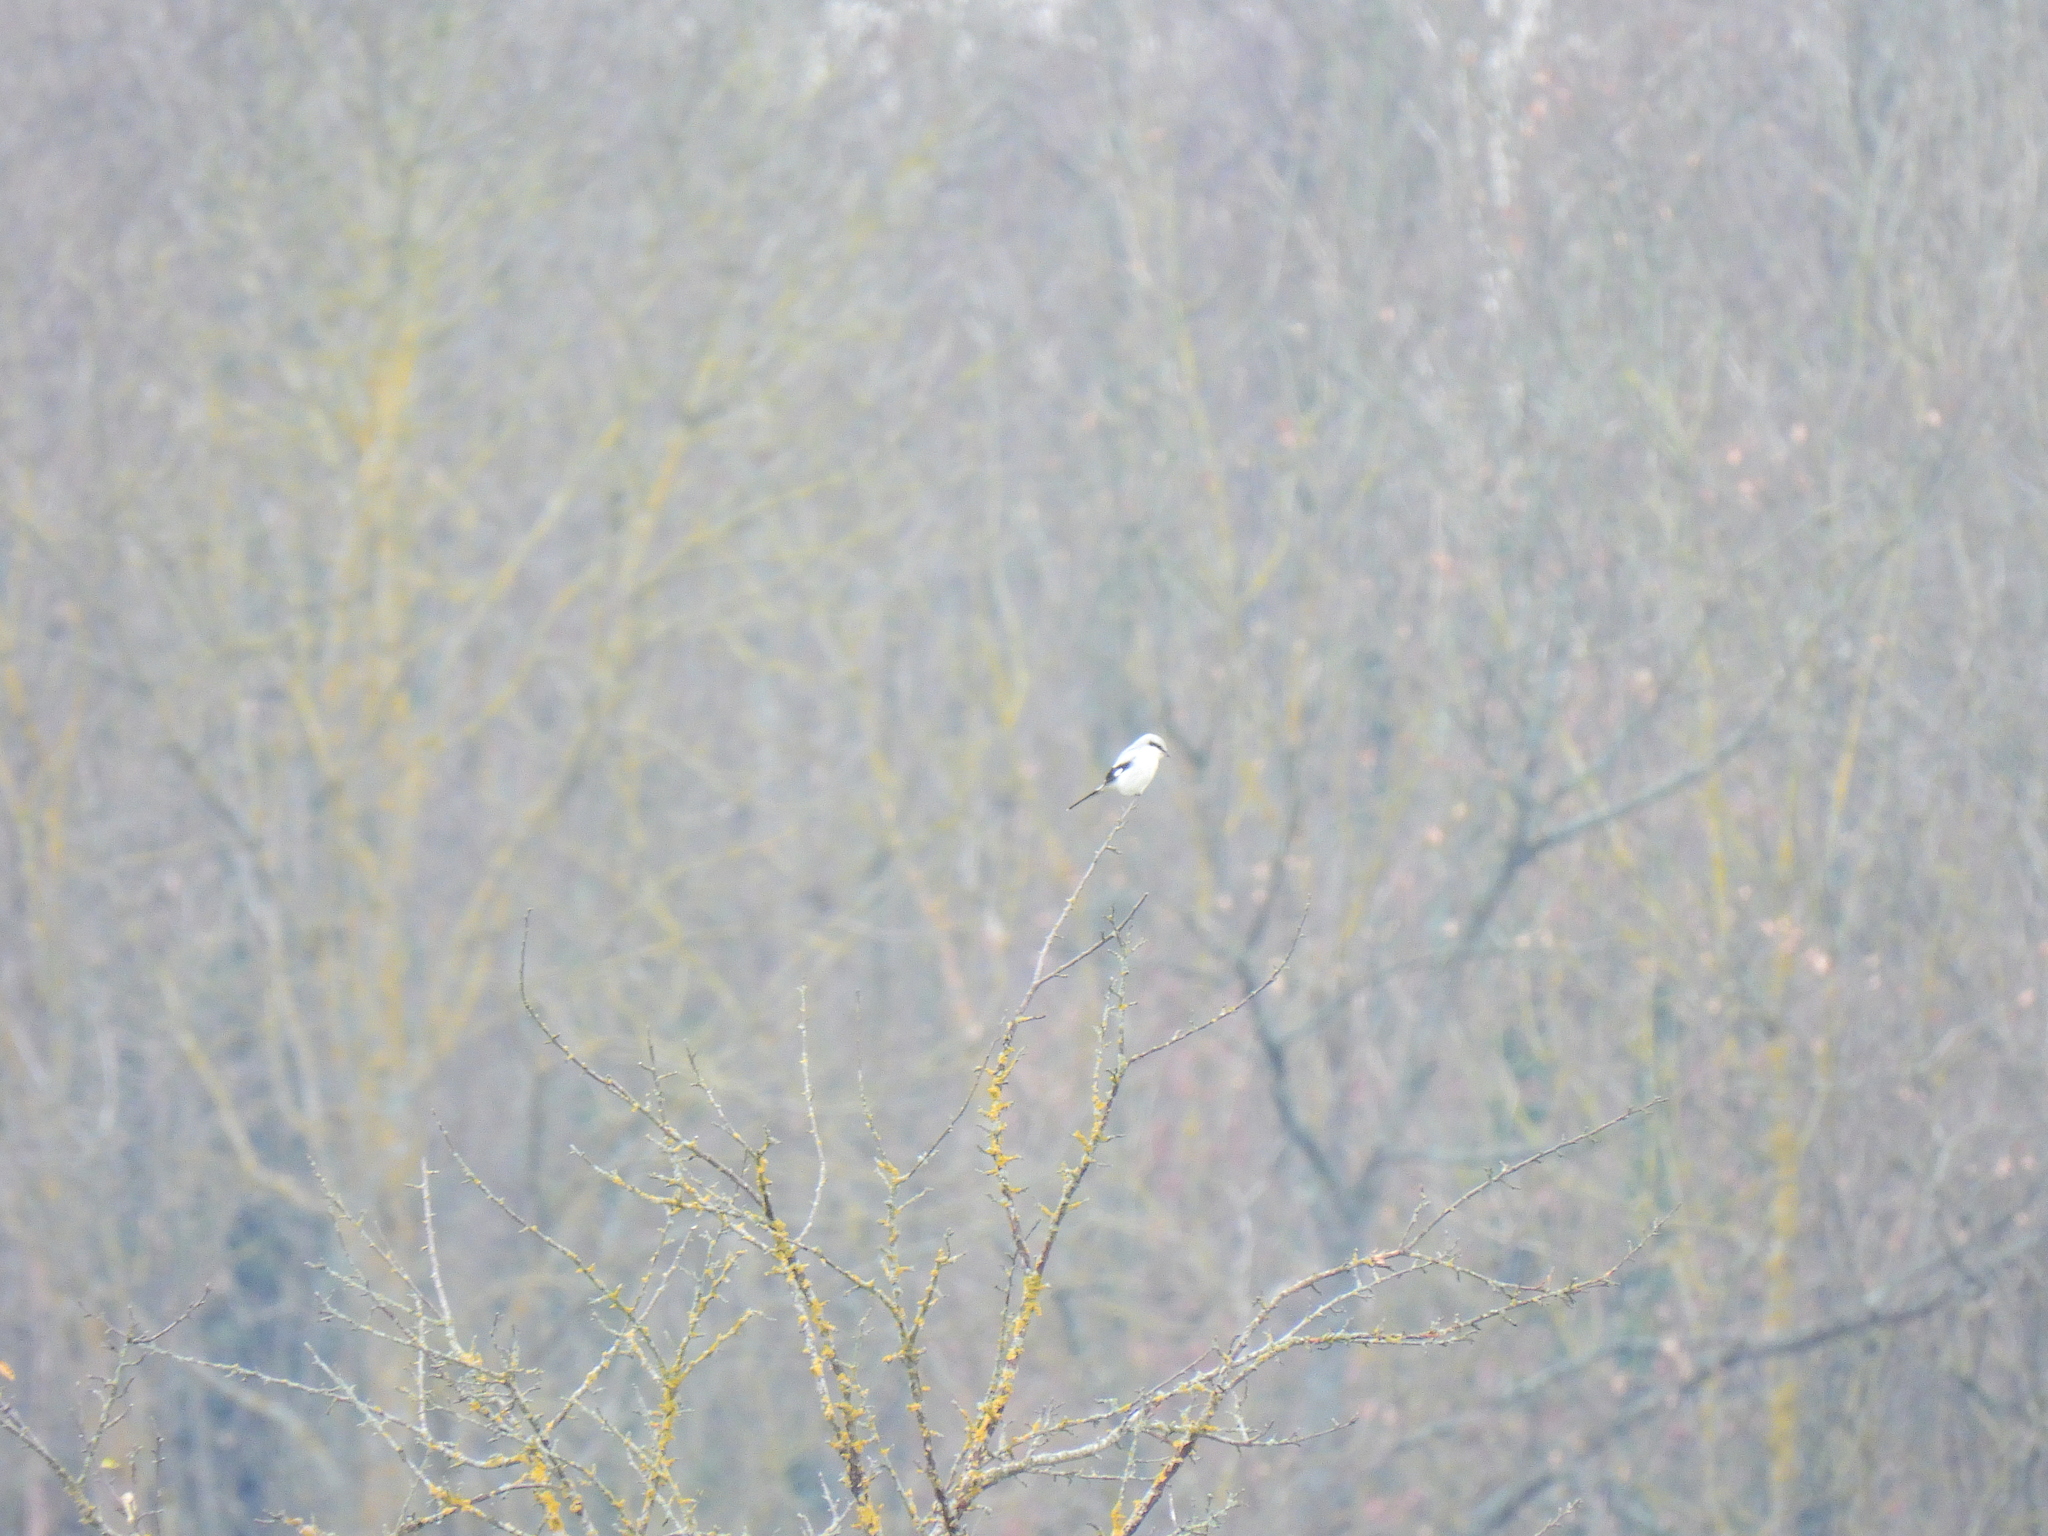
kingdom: Animalia
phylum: Chordata
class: Aves
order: Passeriformes
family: Laniidae
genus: Lanius
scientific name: Lanius excubitor
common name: Great grey shrike
